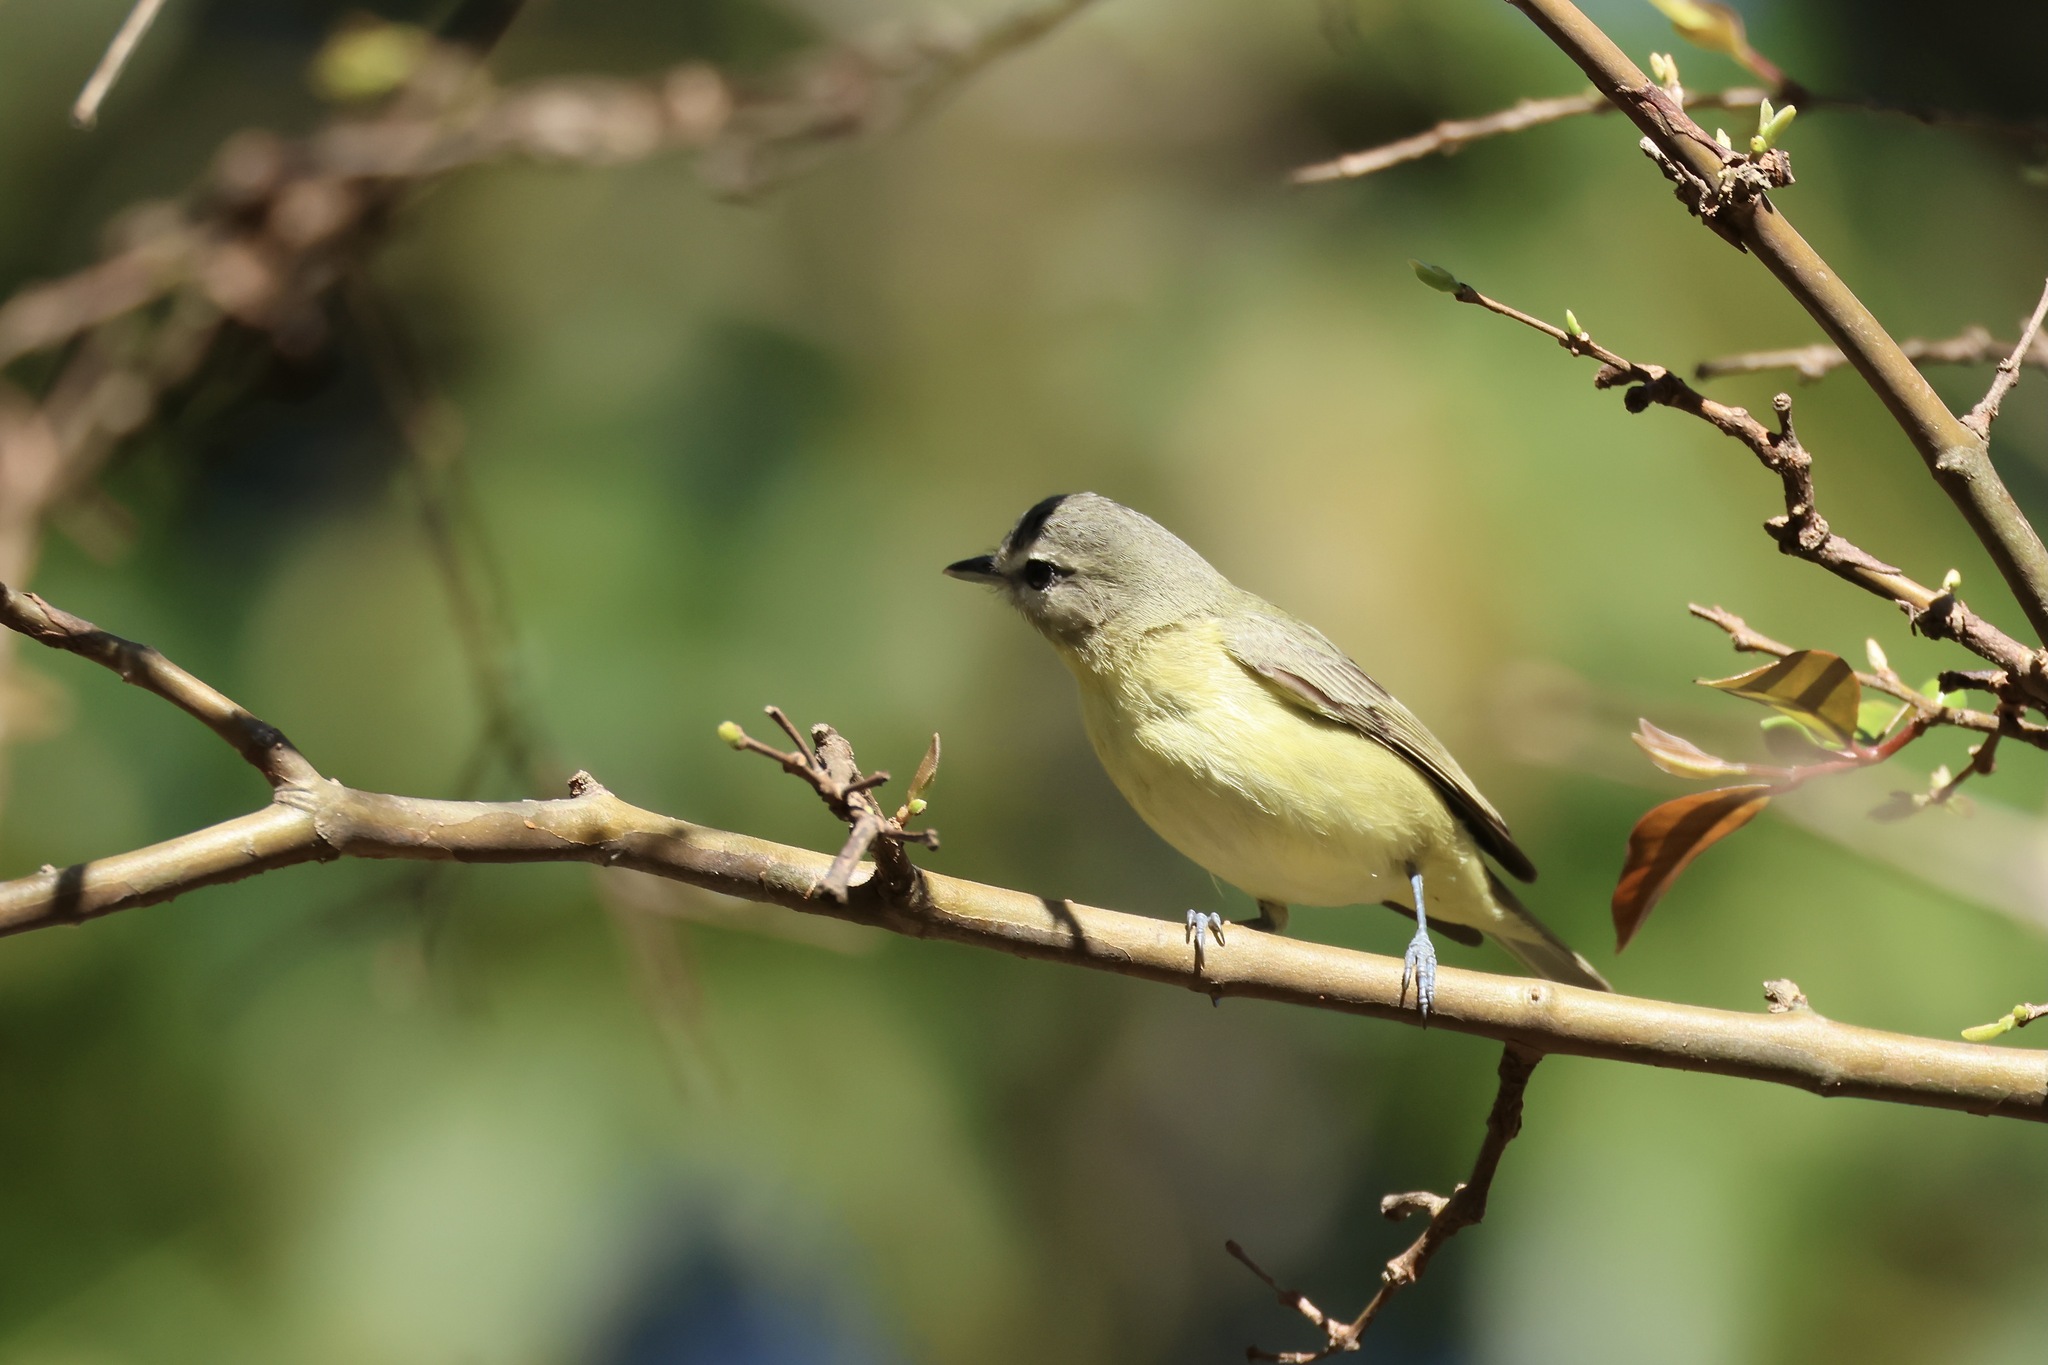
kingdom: Animalia
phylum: Chordata
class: Aves
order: Passeriformes
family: Vireonidae
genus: Vireo
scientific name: Vireo philadelphicus
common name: Philadelphia vireo
